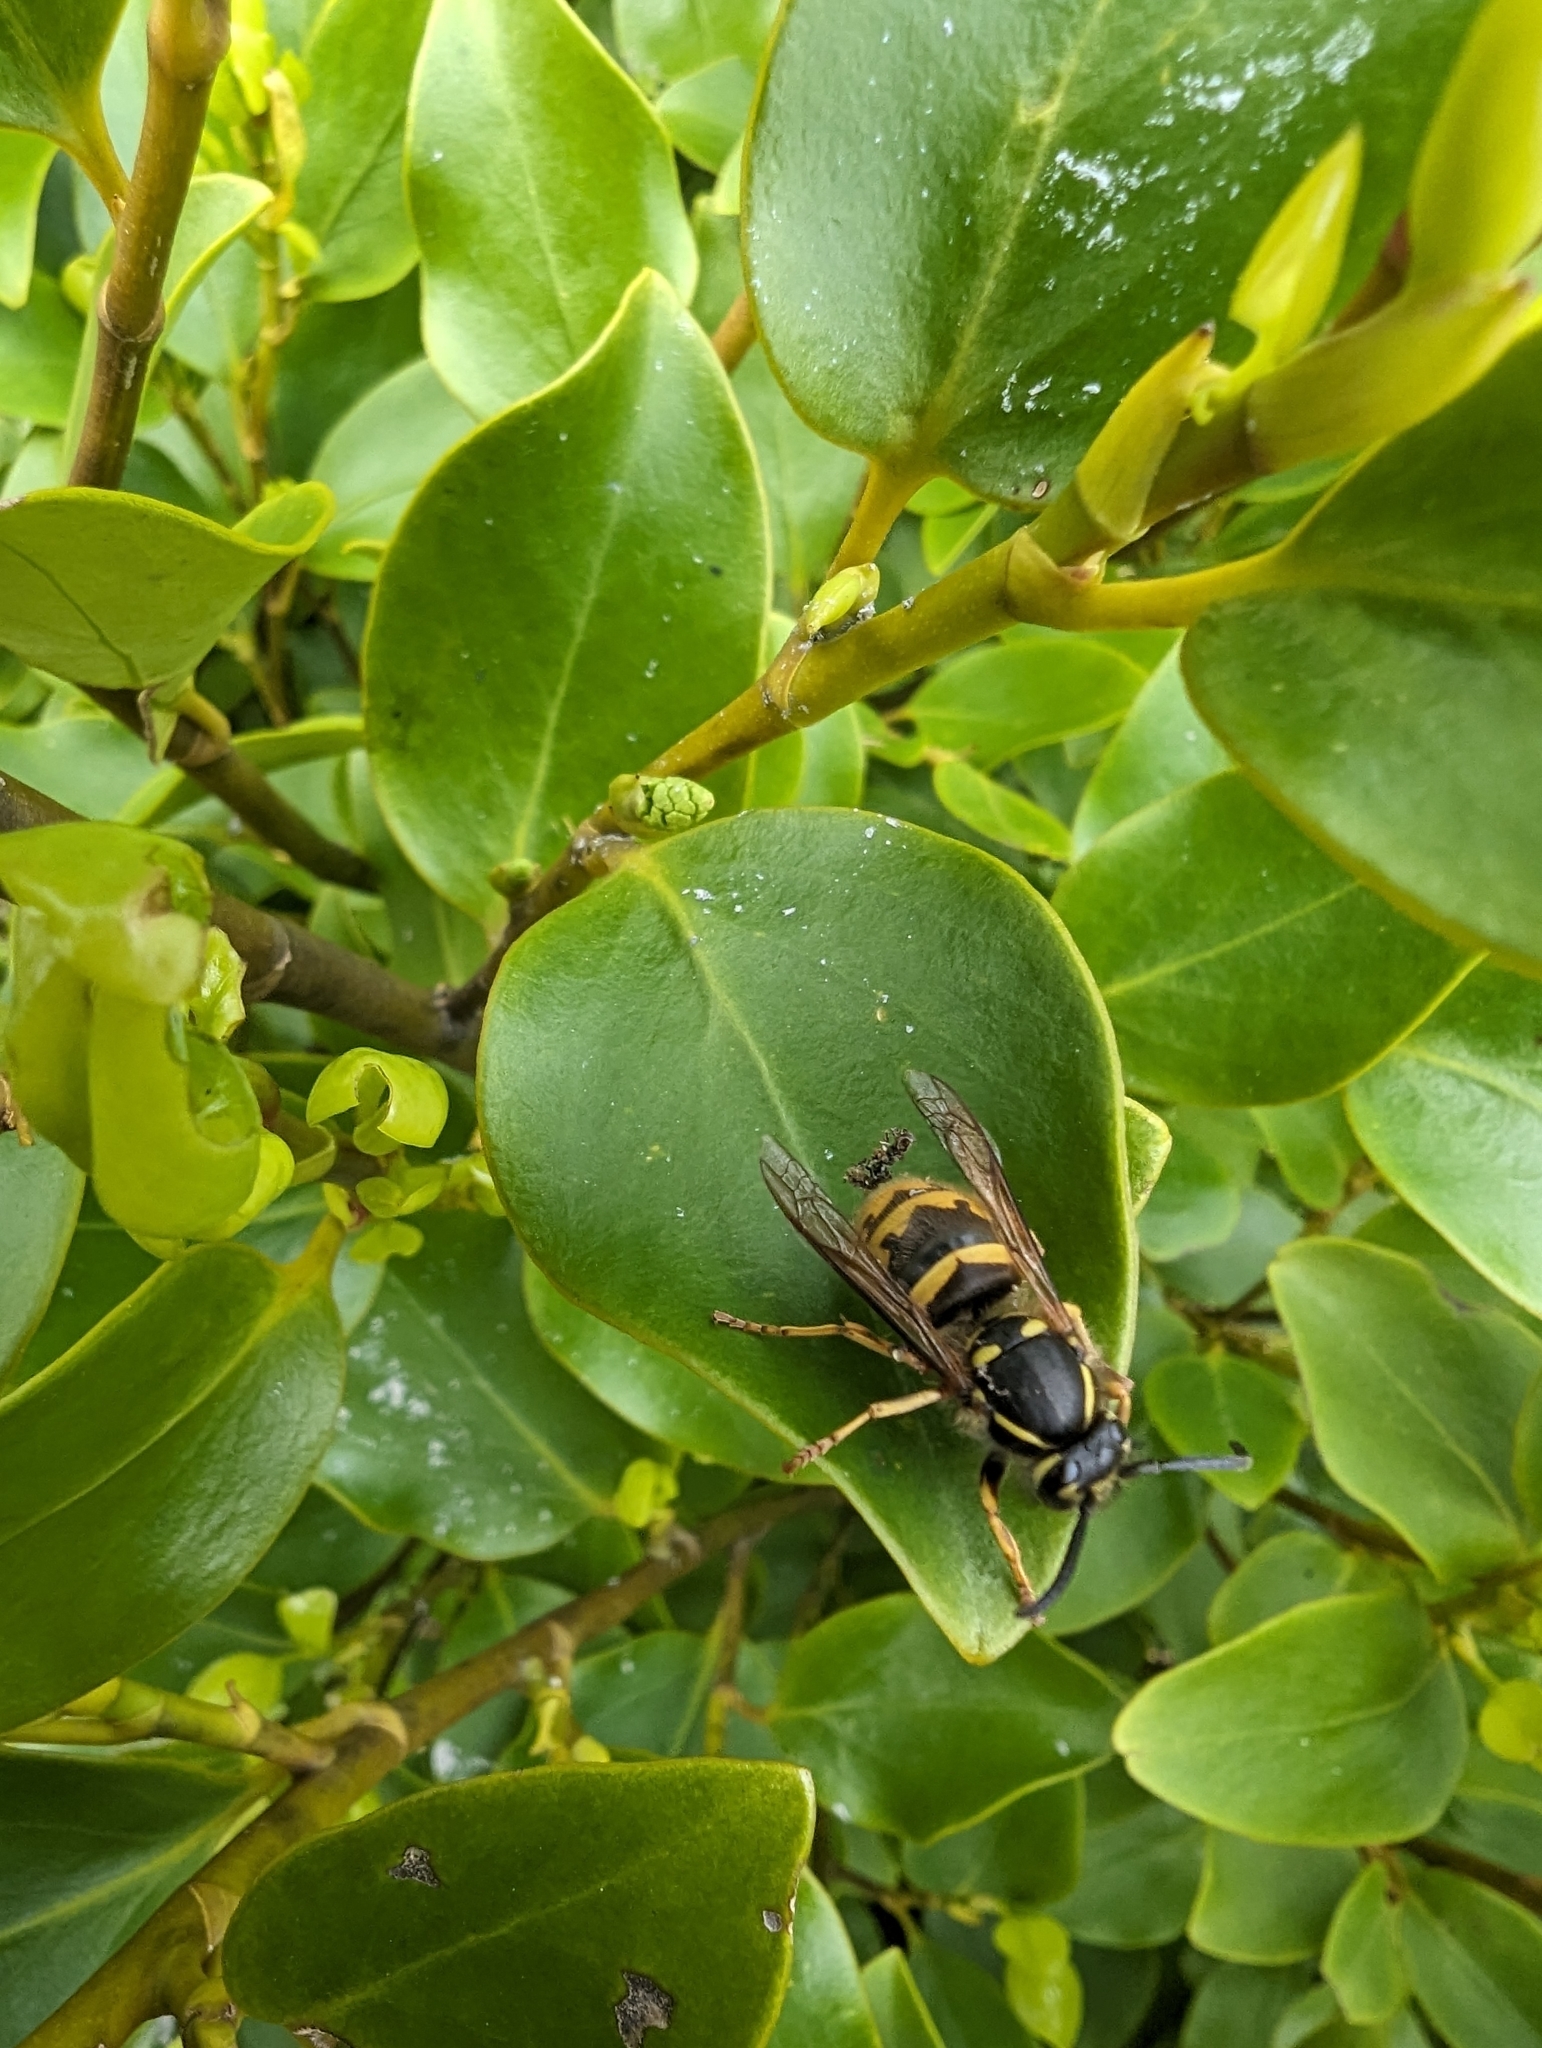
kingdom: Animalia
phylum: Arthropoda
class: Insecta
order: Hymenoptera
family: Vespidae
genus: Vespula
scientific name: Vespula vulgaris
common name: Common wasp
